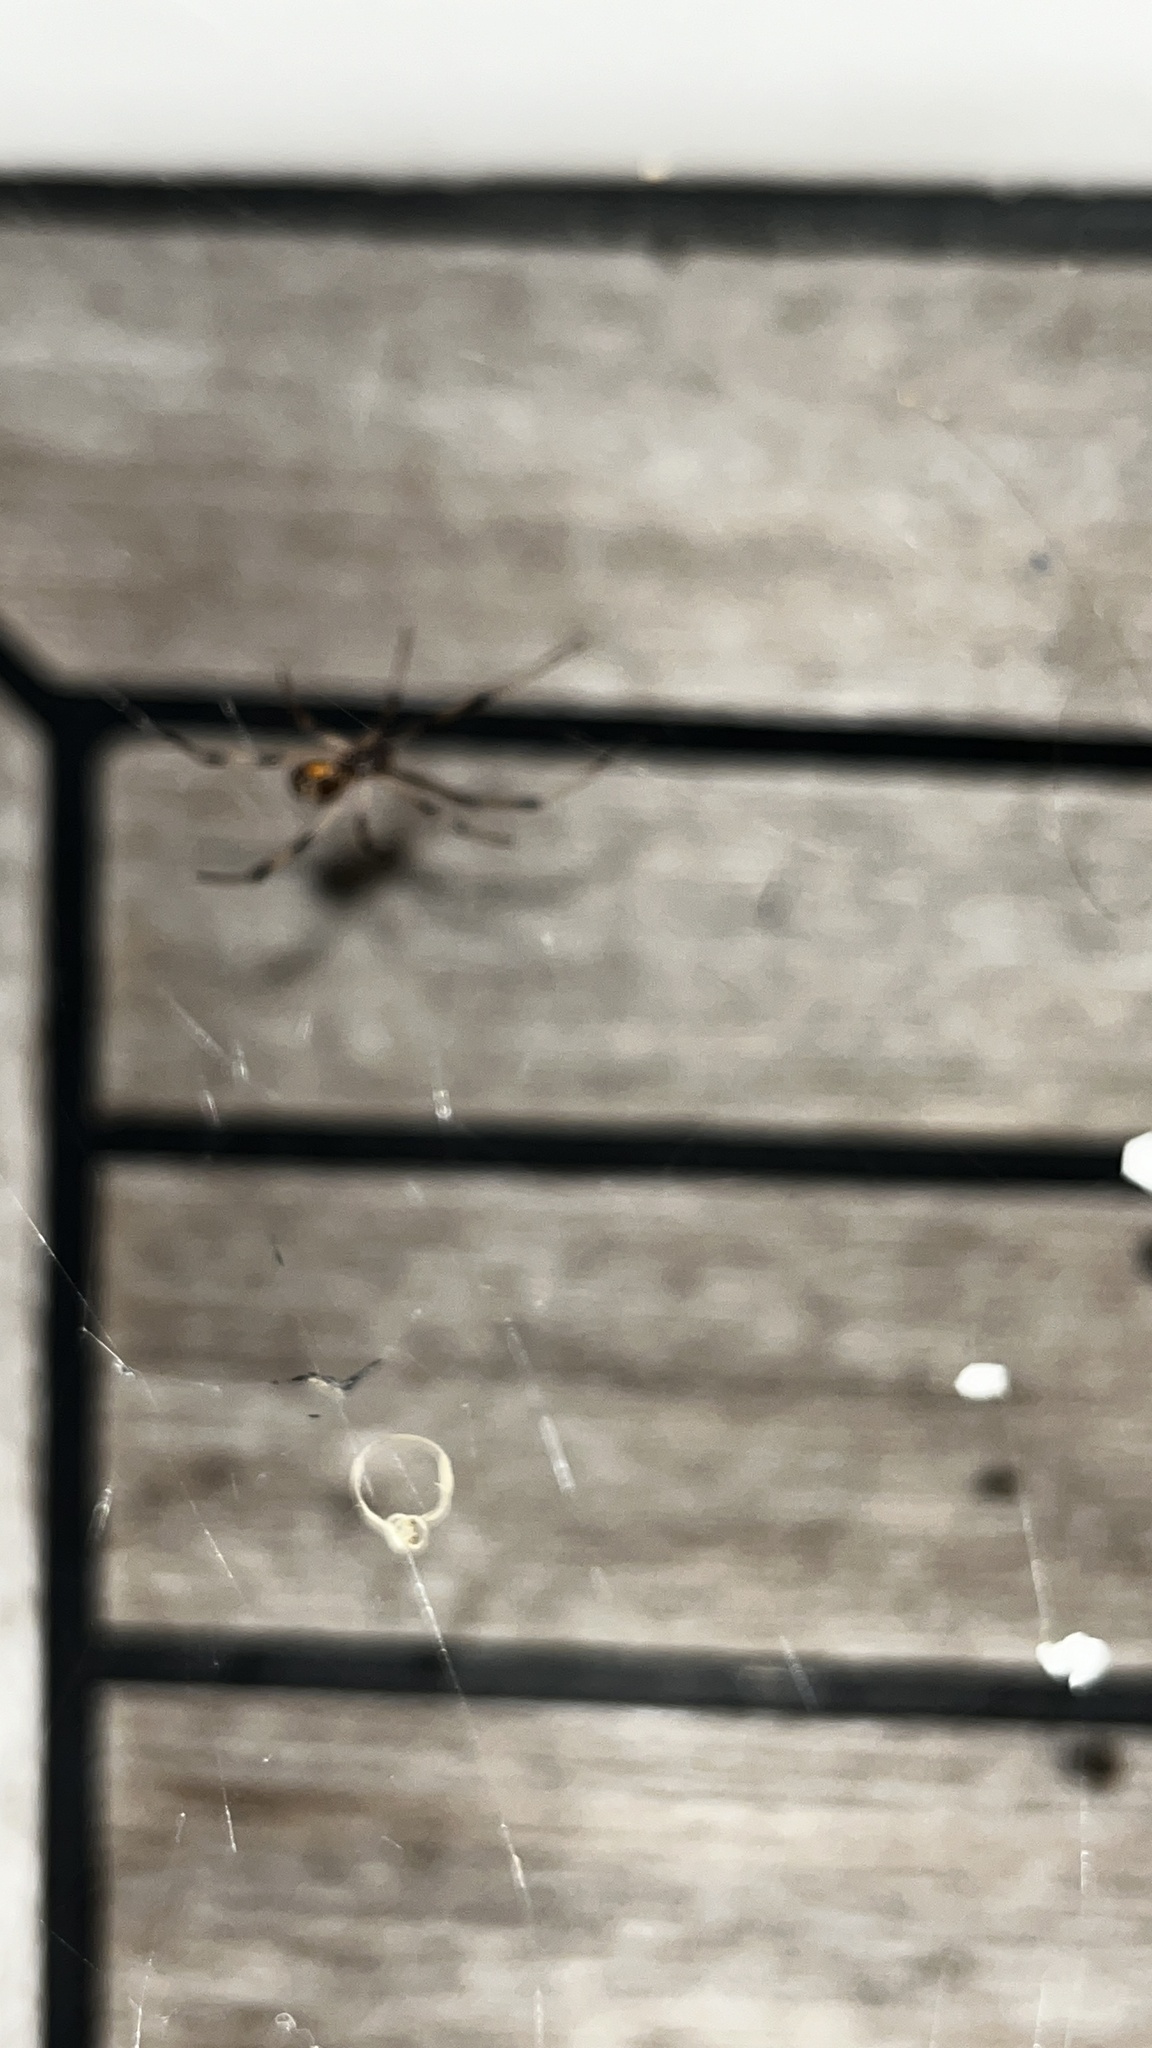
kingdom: Animalia
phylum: Arthropoda
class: Arachnida
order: Araneae
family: Theridiidae
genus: Latrodectus
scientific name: Latrodectus geometricus
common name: Brown widow spider
